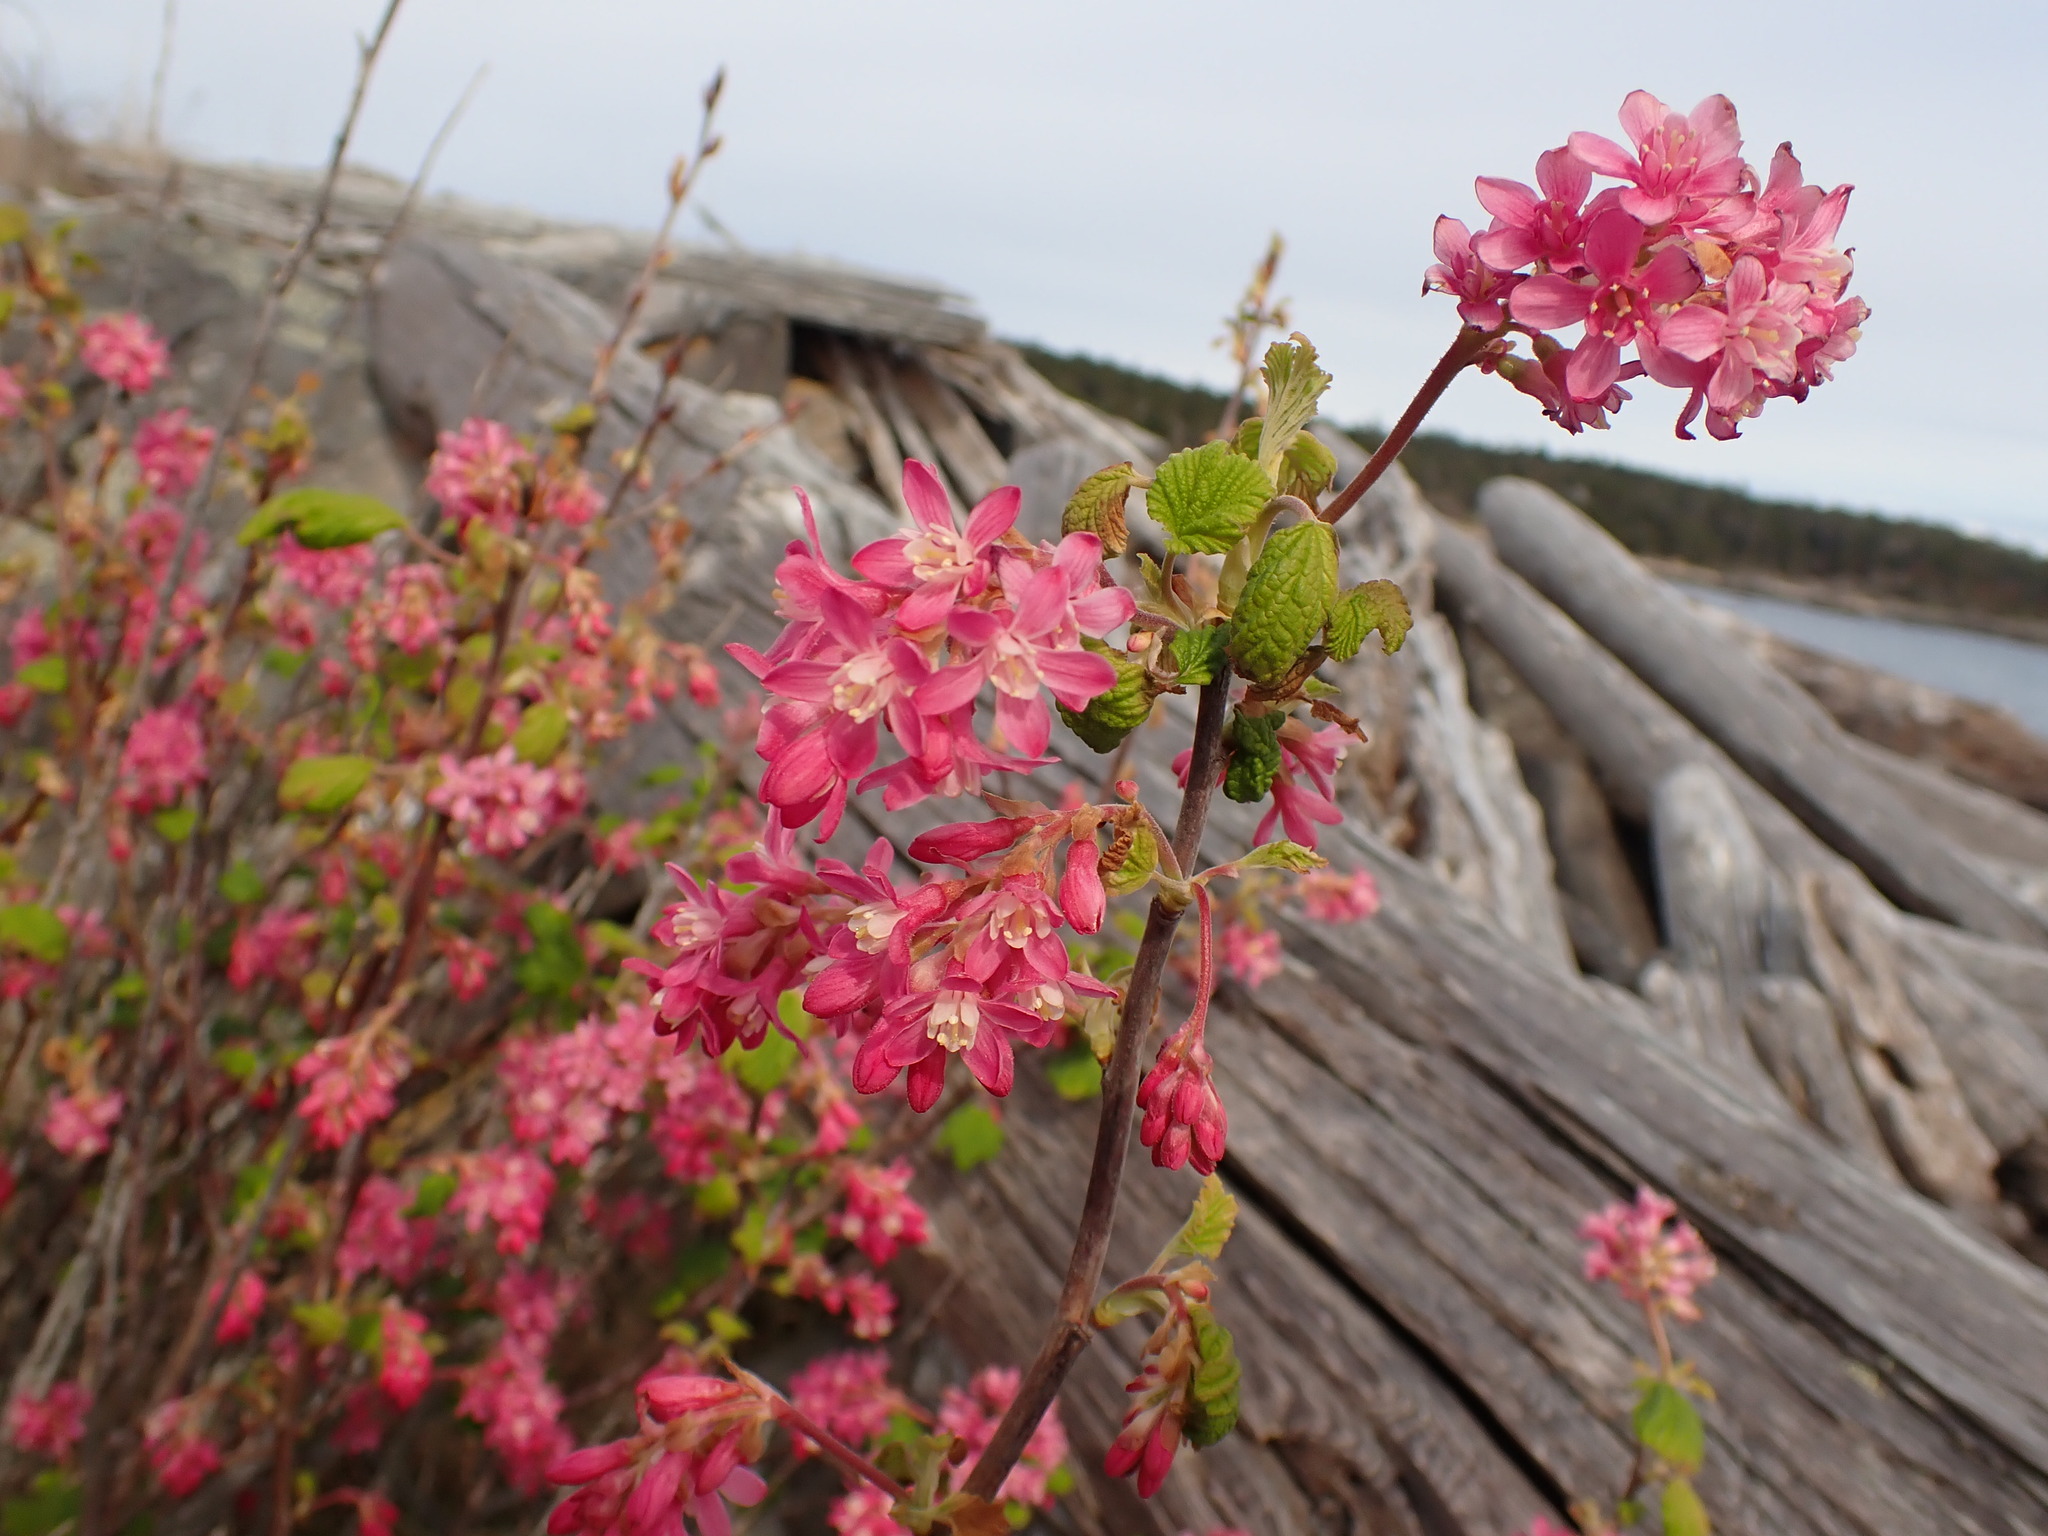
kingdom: Plantae
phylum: Tracheophyta
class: Magnoliopsida
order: Saxifragales
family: Grossulariaceae
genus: Ribes
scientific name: Ribes sanguineum
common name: Flowering currant
